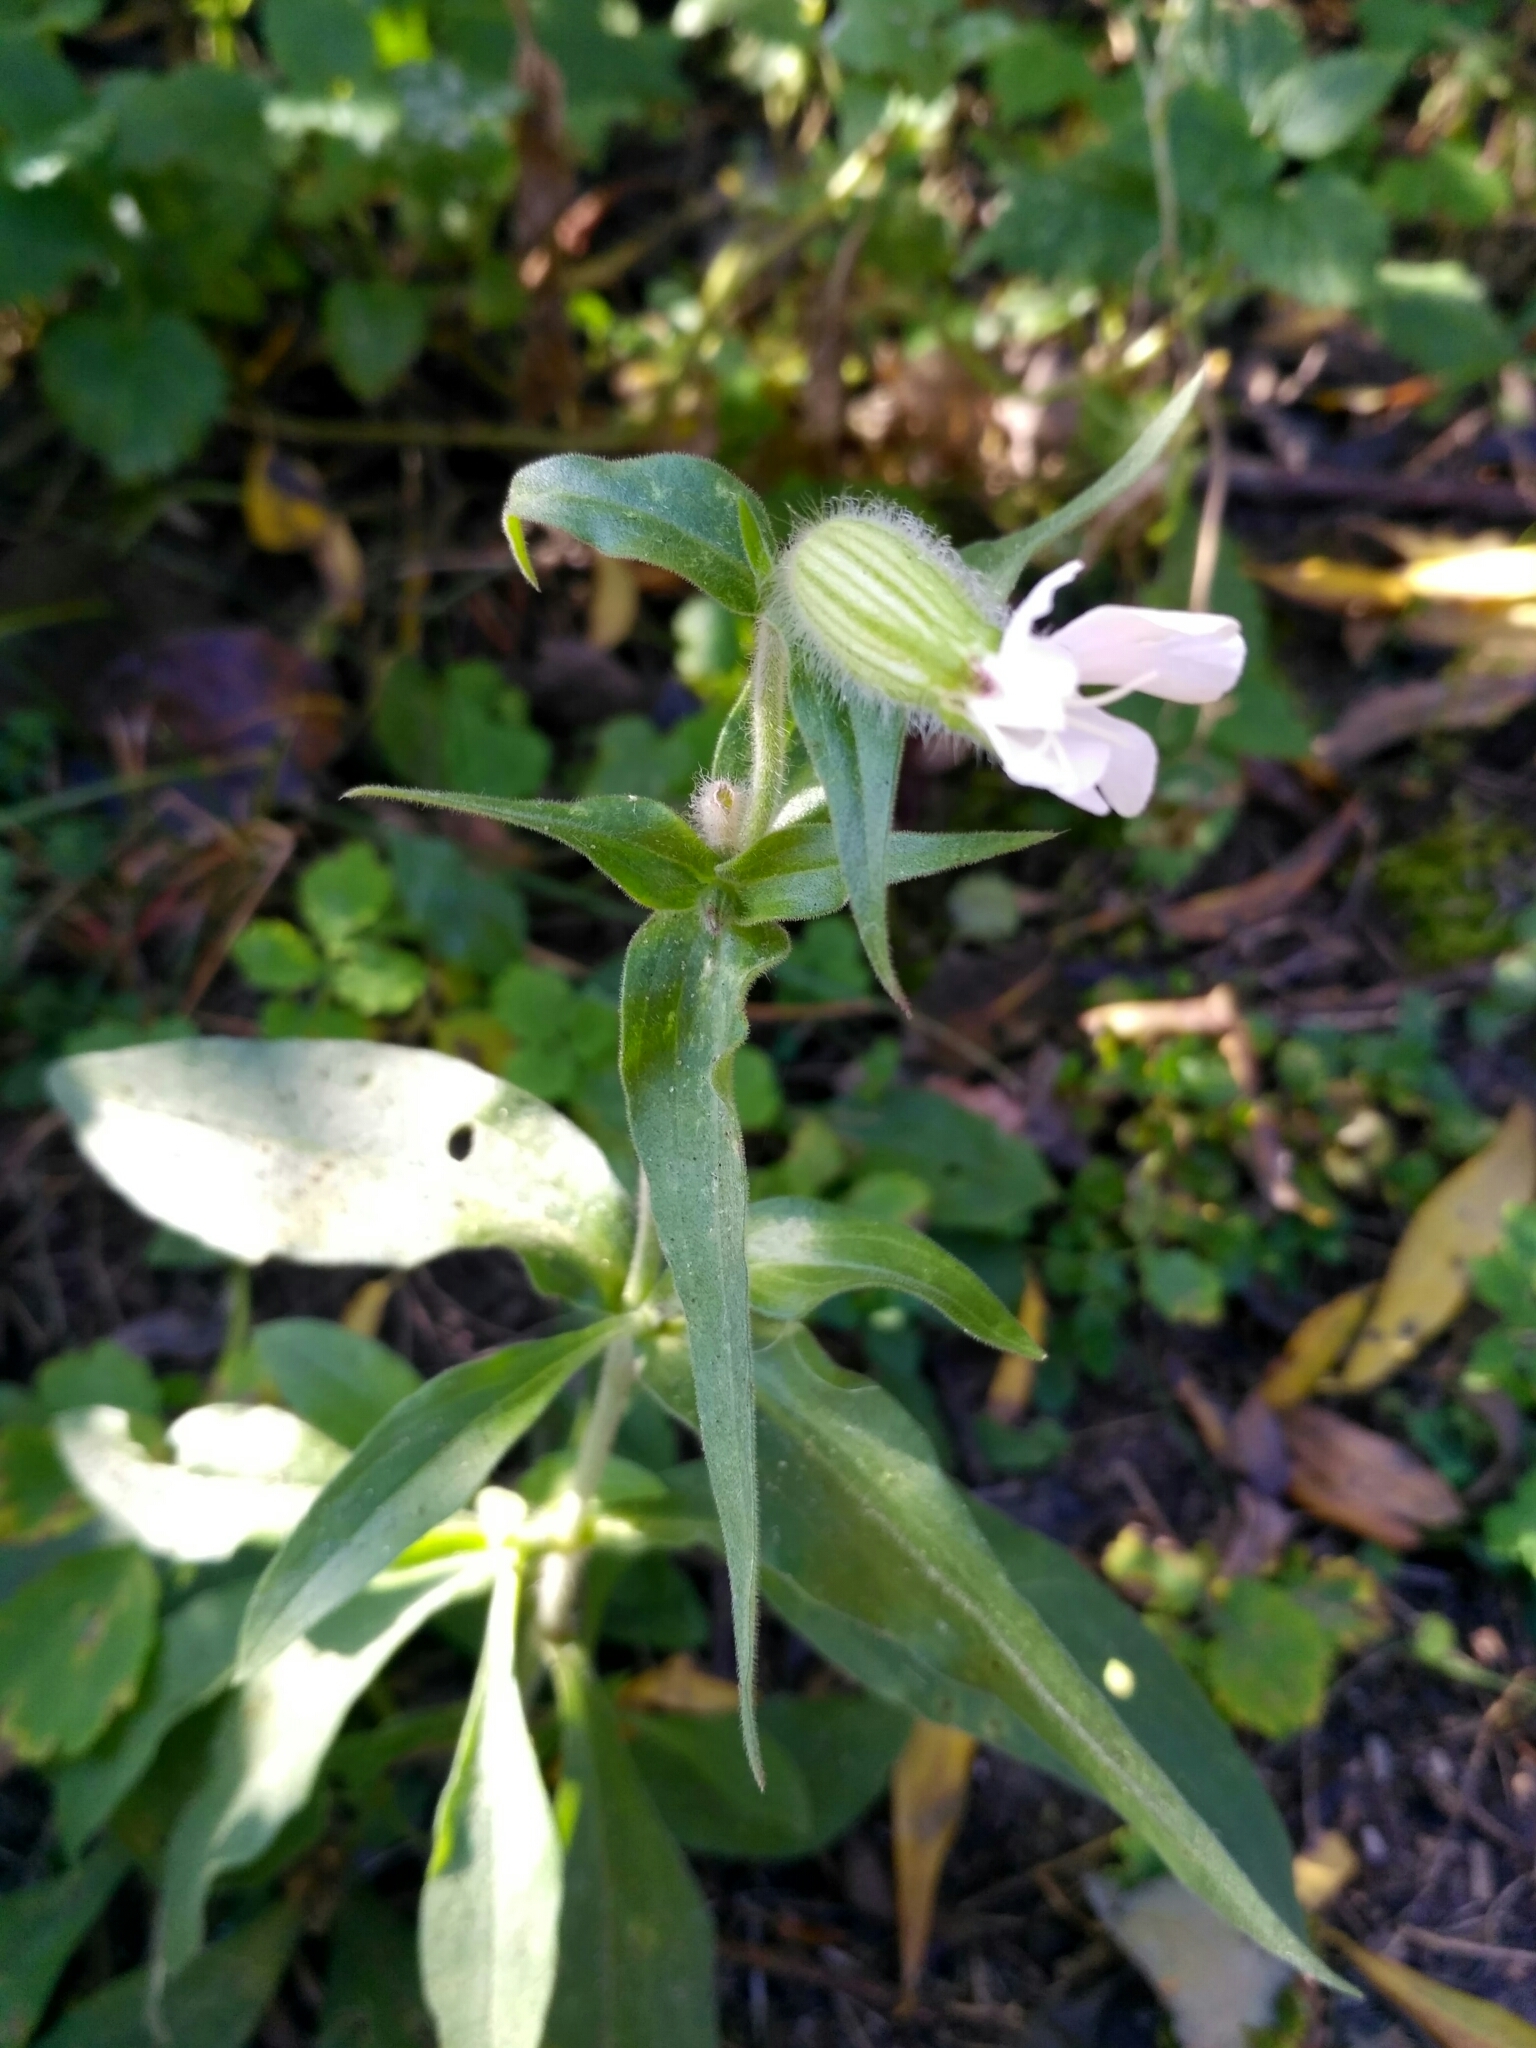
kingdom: Plantae
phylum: Tracheophyta
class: Magnoliopsida
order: Caryophyllales
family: Caryophyllaceae
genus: Silene
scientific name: Silene latifolia
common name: White campion
